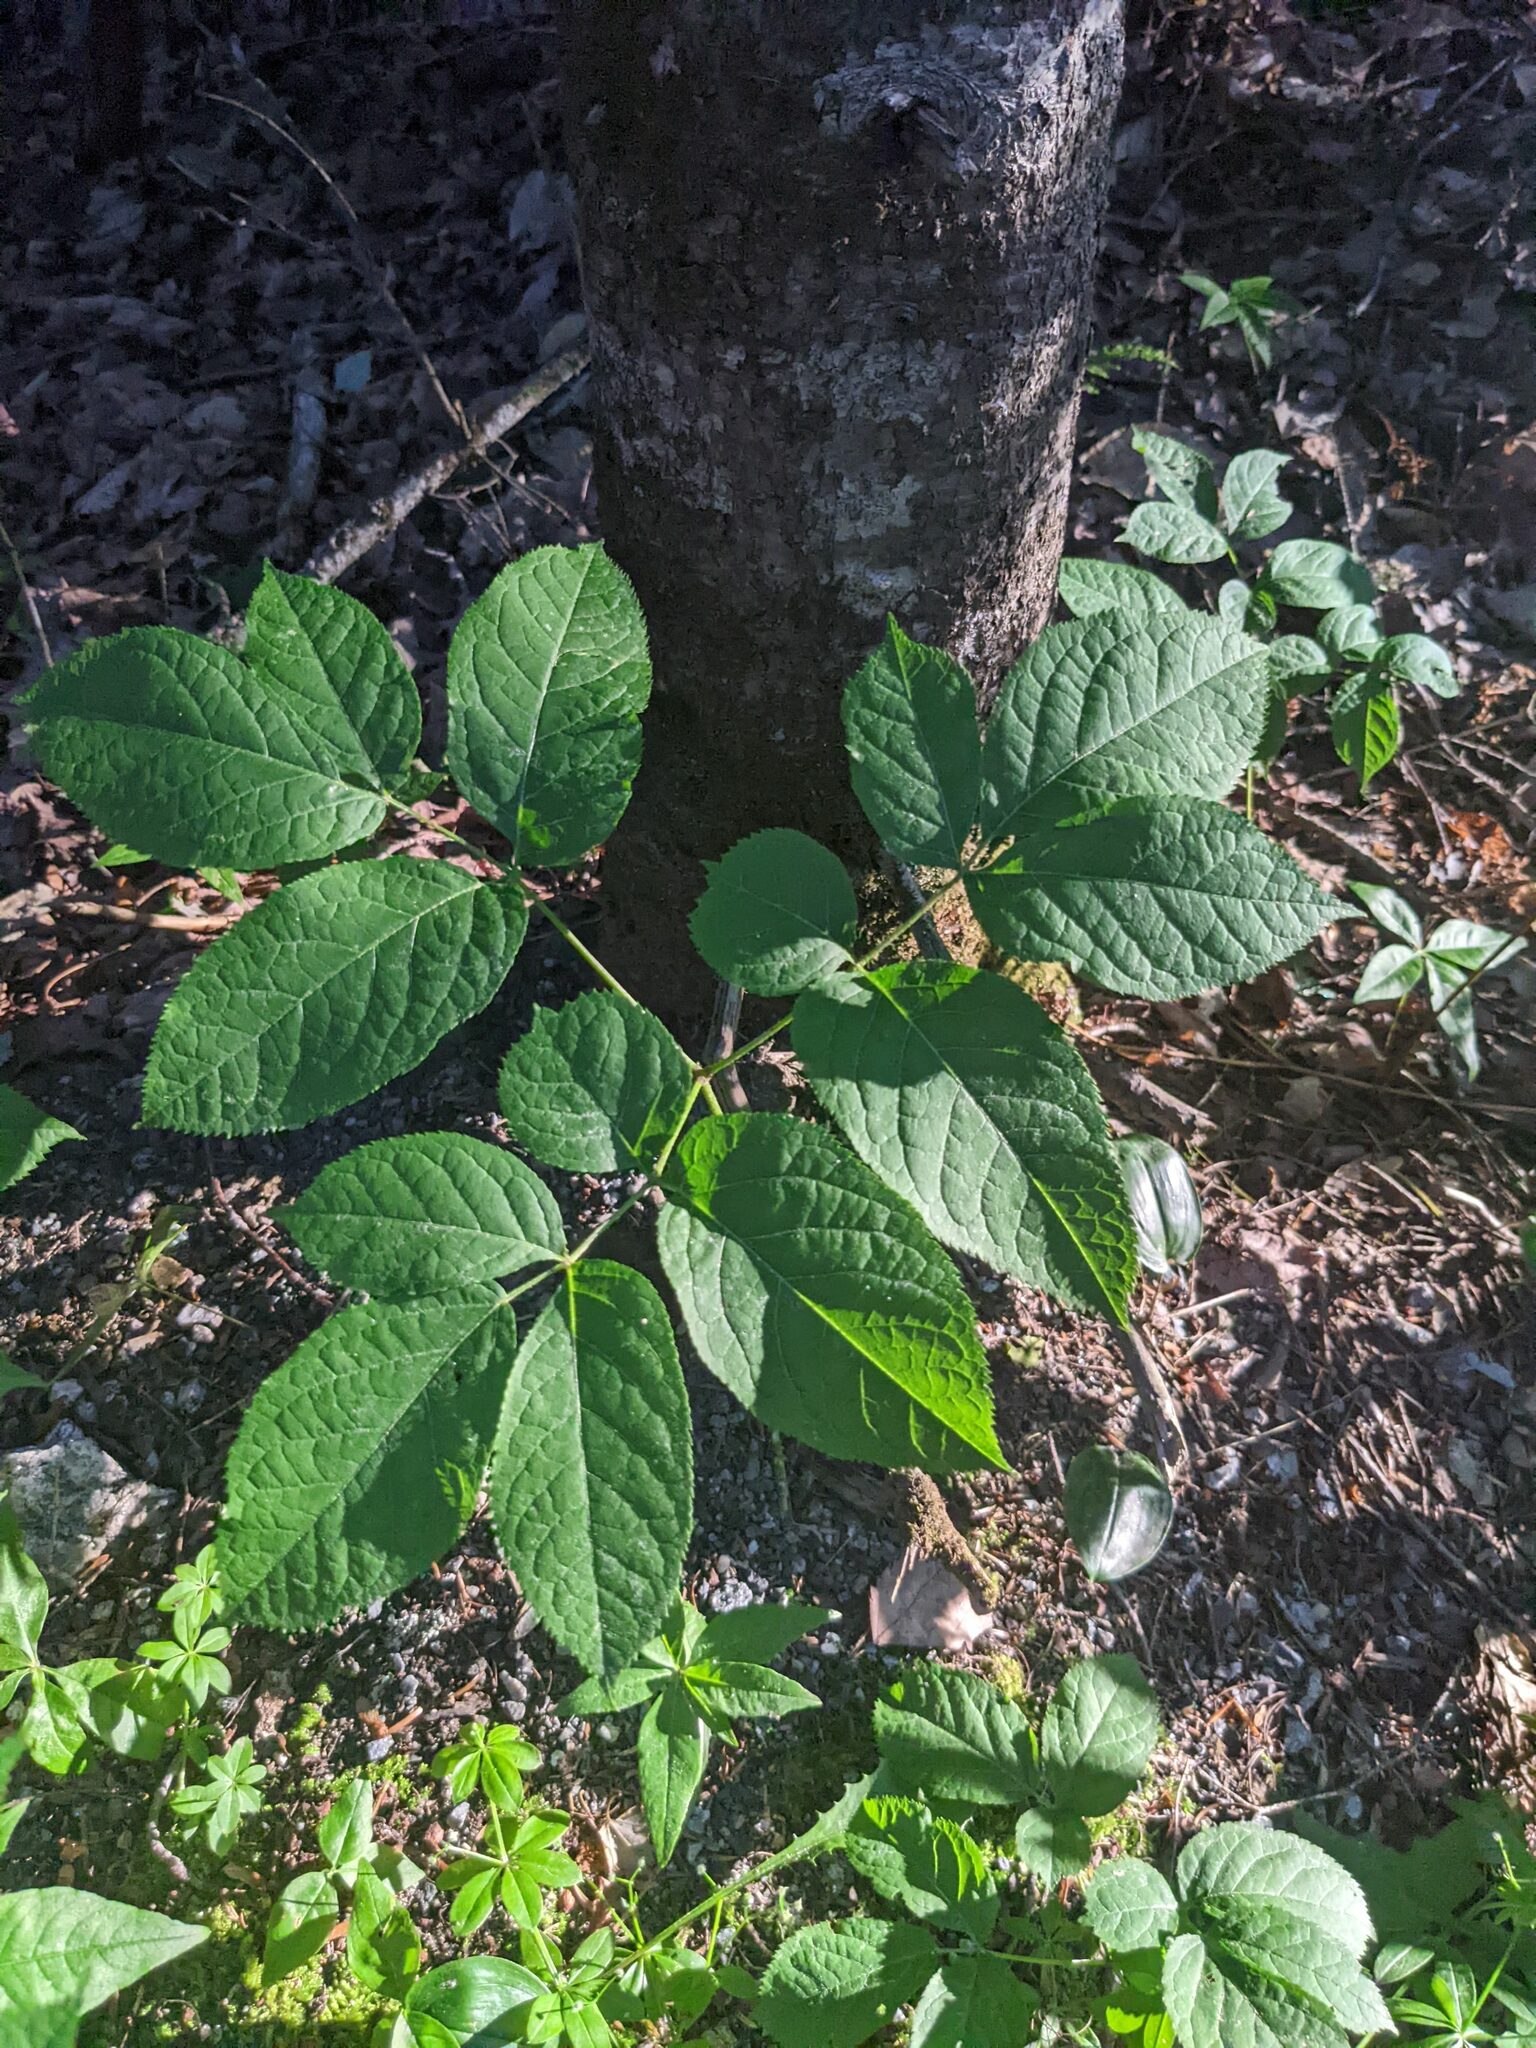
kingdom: Plantae
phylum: Tracheophyta
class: Magnoliopsida
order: Apiales
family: Araliaceae
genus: Aralia
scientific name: Aralia nudicaulis
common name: Wild sarsaparilla
